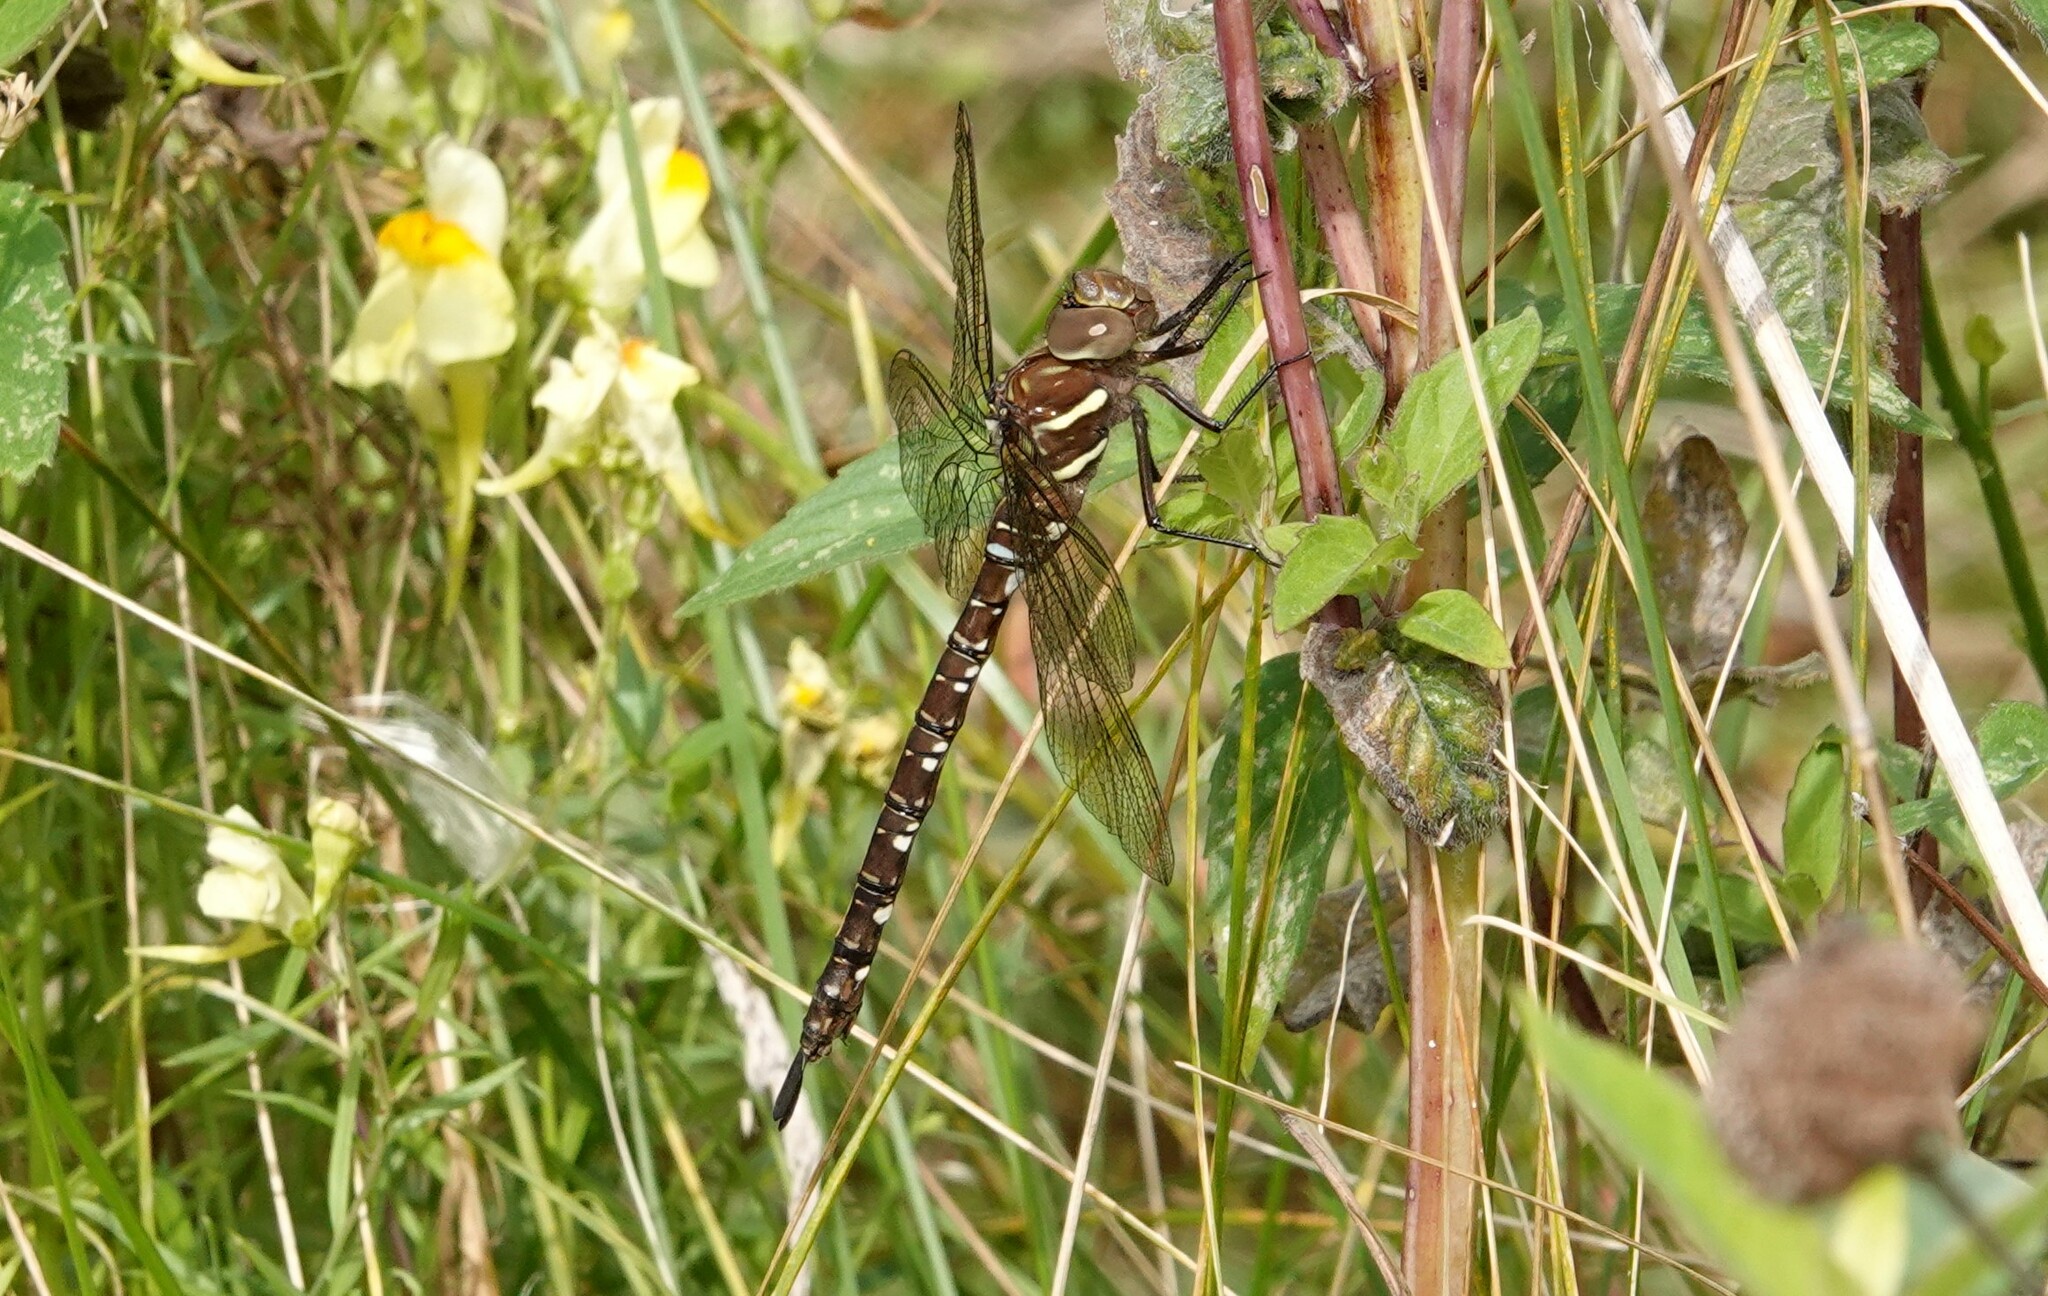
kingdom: Animalia
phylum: Arthropoda
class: Insecta
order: Odonata
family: Aeshnidae
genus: Aeshna
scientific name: Aeshna umbrosa
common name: Shadow darner
